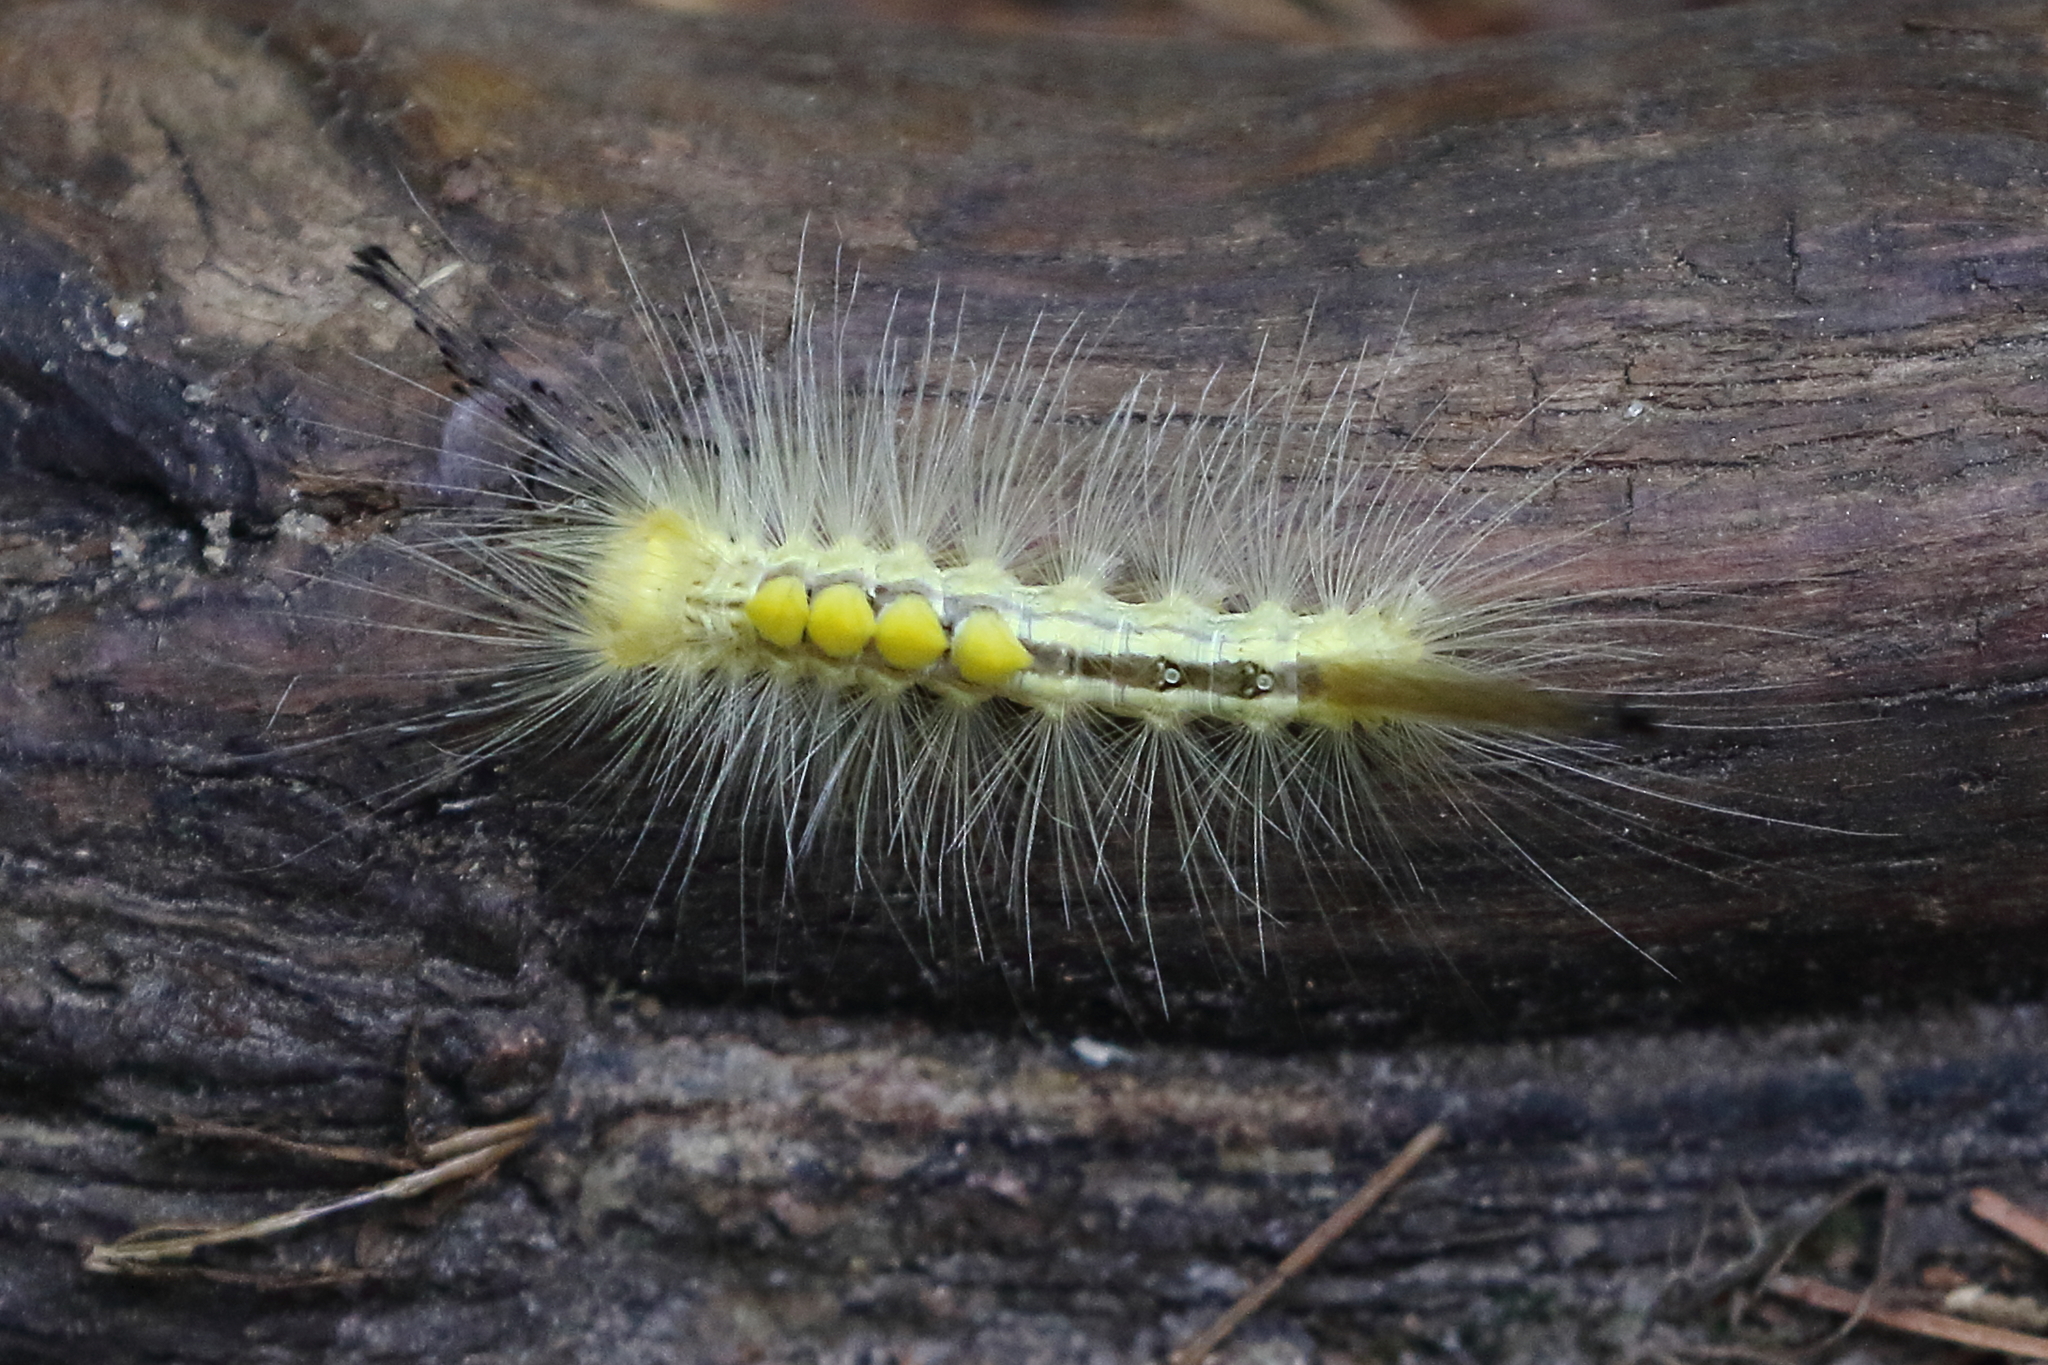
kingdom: Animalia
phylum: Arthropoda
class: Insecta
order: Lepidoptera
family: Erebidae
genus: Orgyia
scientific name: Orgyia definita
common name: Definite tussock moth
